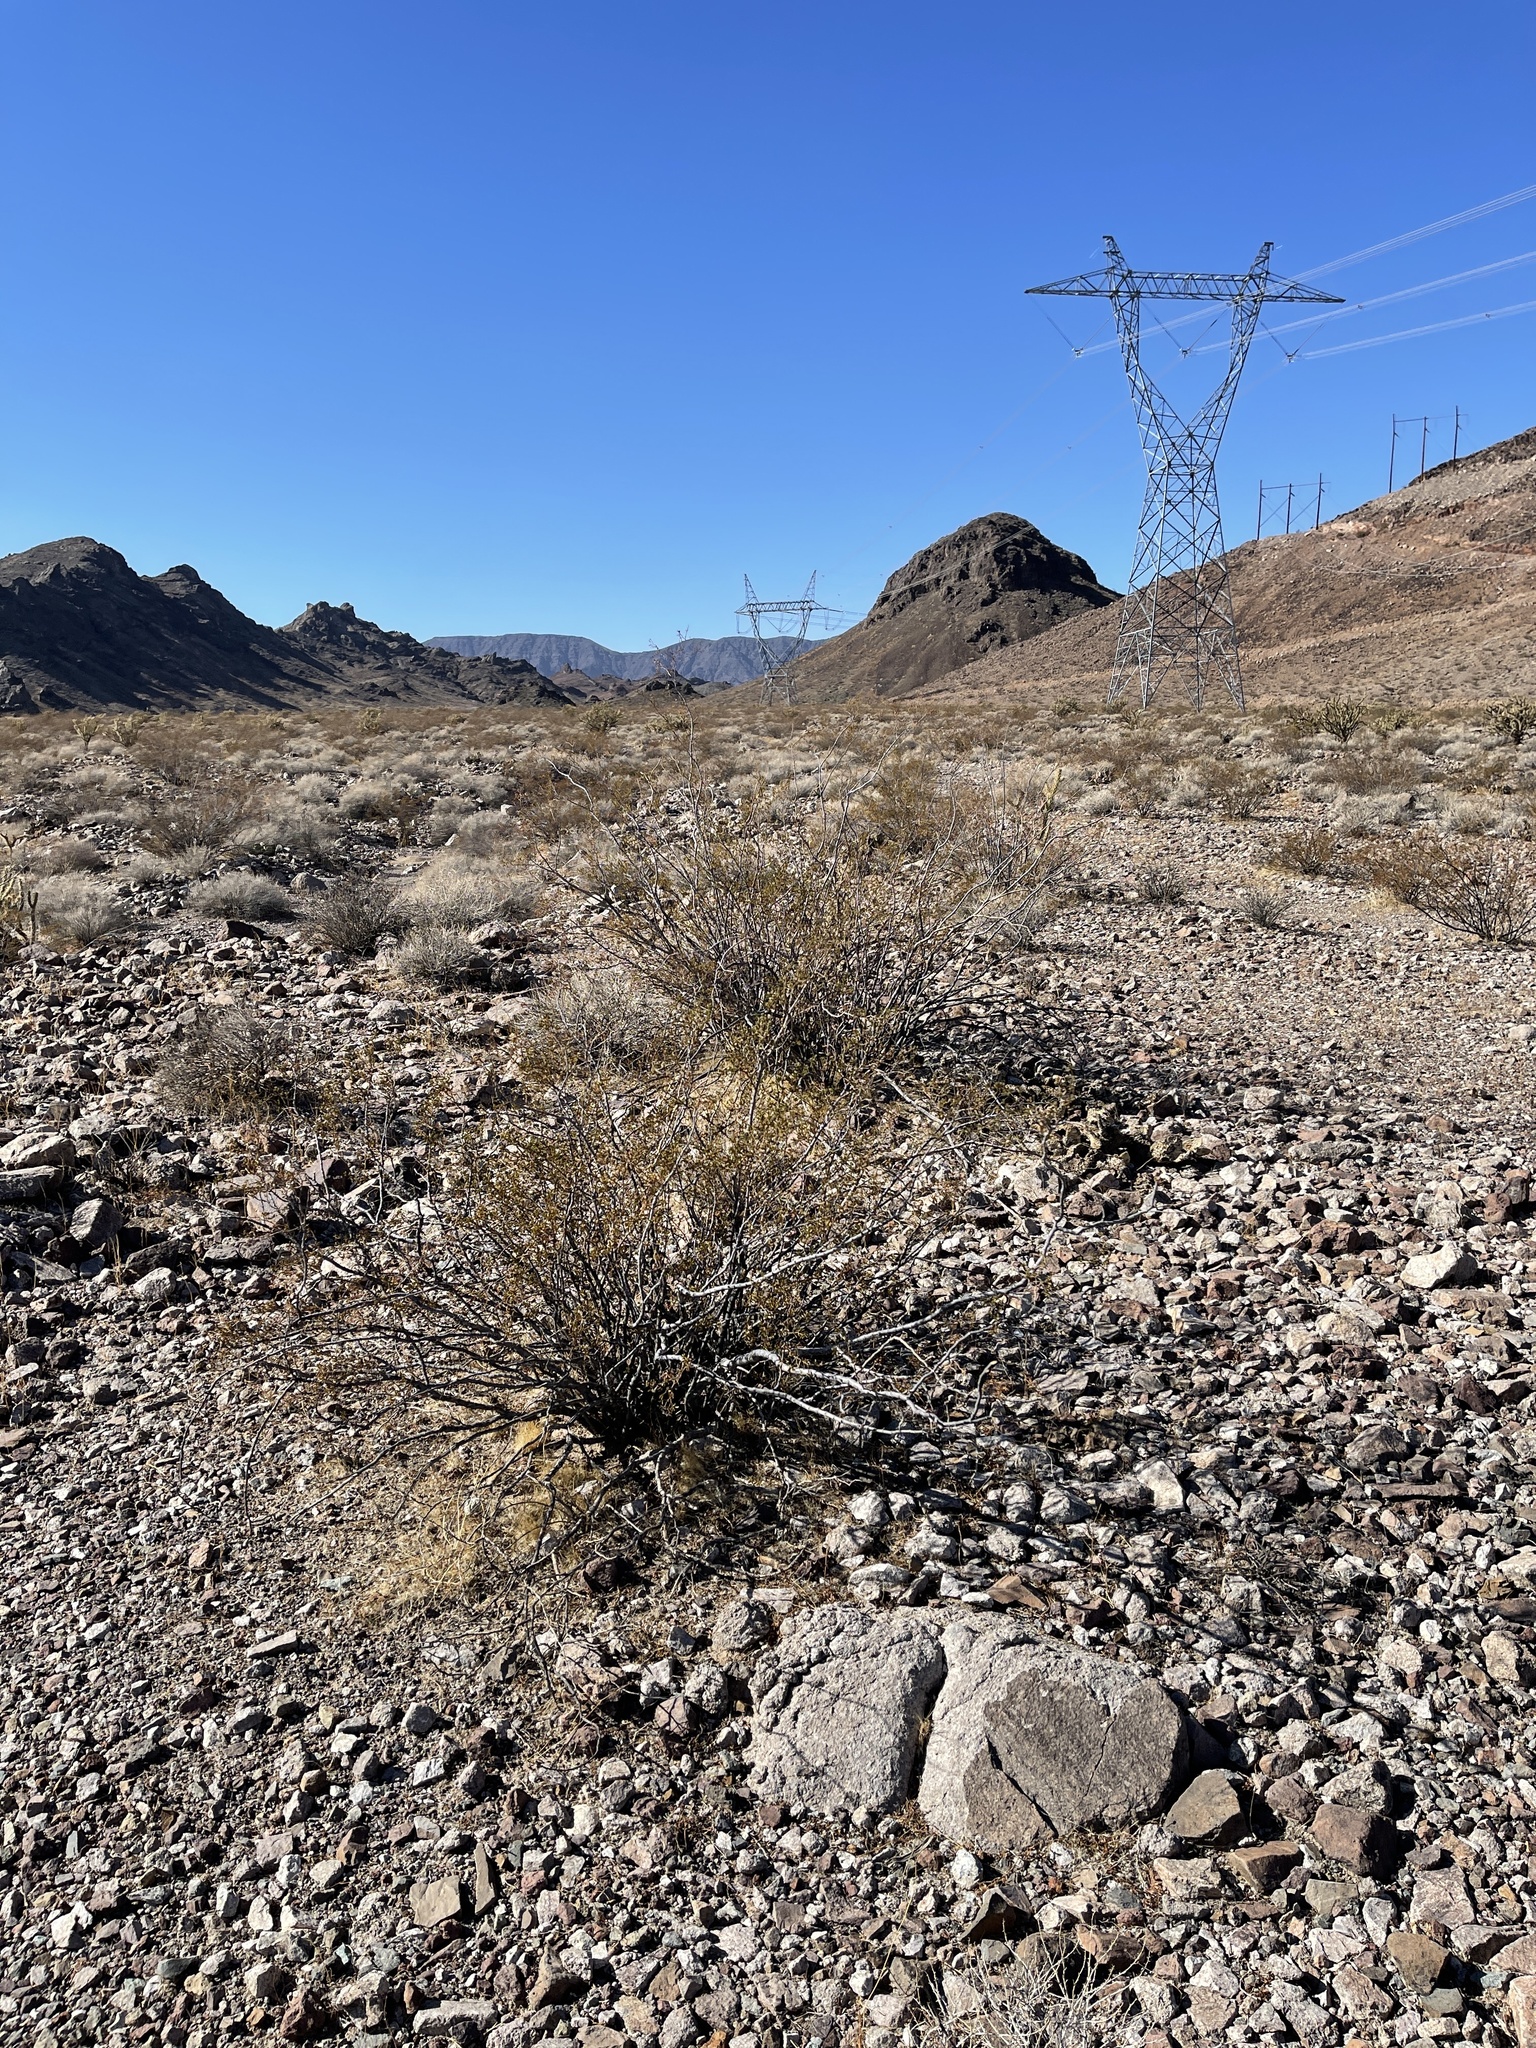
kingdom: Plantae
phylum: Tracheophyta
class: Magnoliopsida
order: Zygophyllales
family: Zygophyllaceae
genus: Larrea
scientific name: Larrea tridentata
